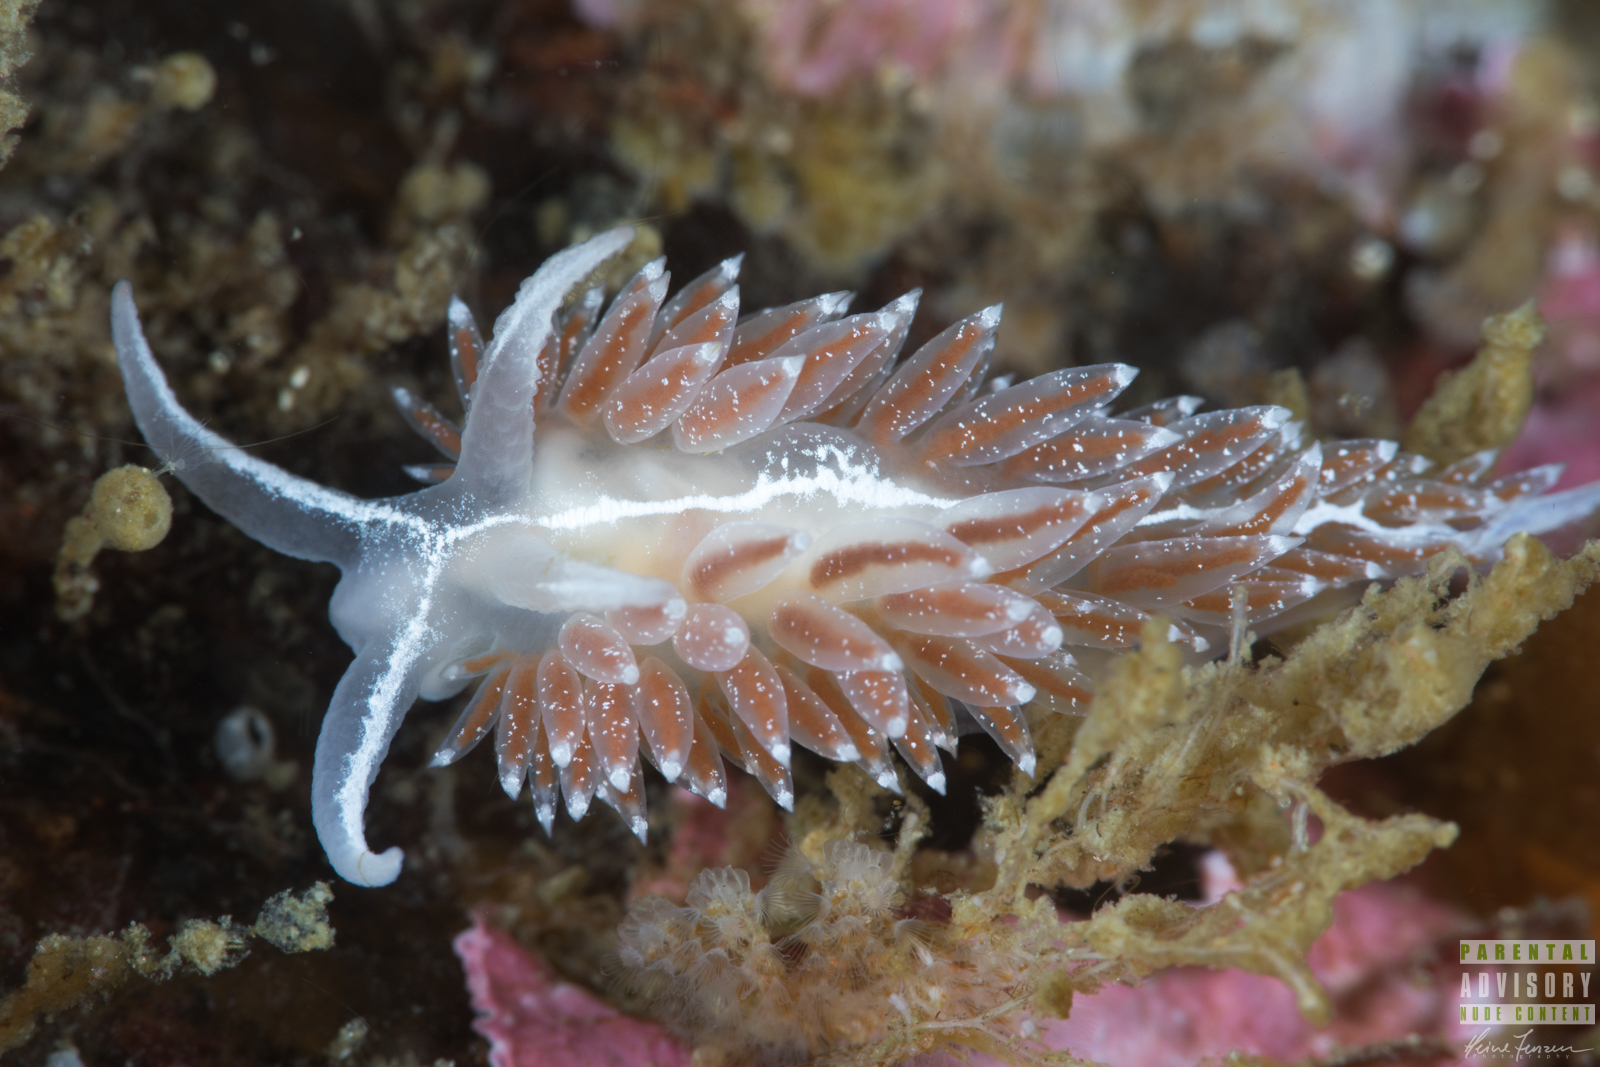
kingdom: Animalia
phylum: Mollusca
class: Gastropoda
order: Nudibranchia
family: Coryphellidae
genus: Coryphella
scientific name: Coryphella monicae
